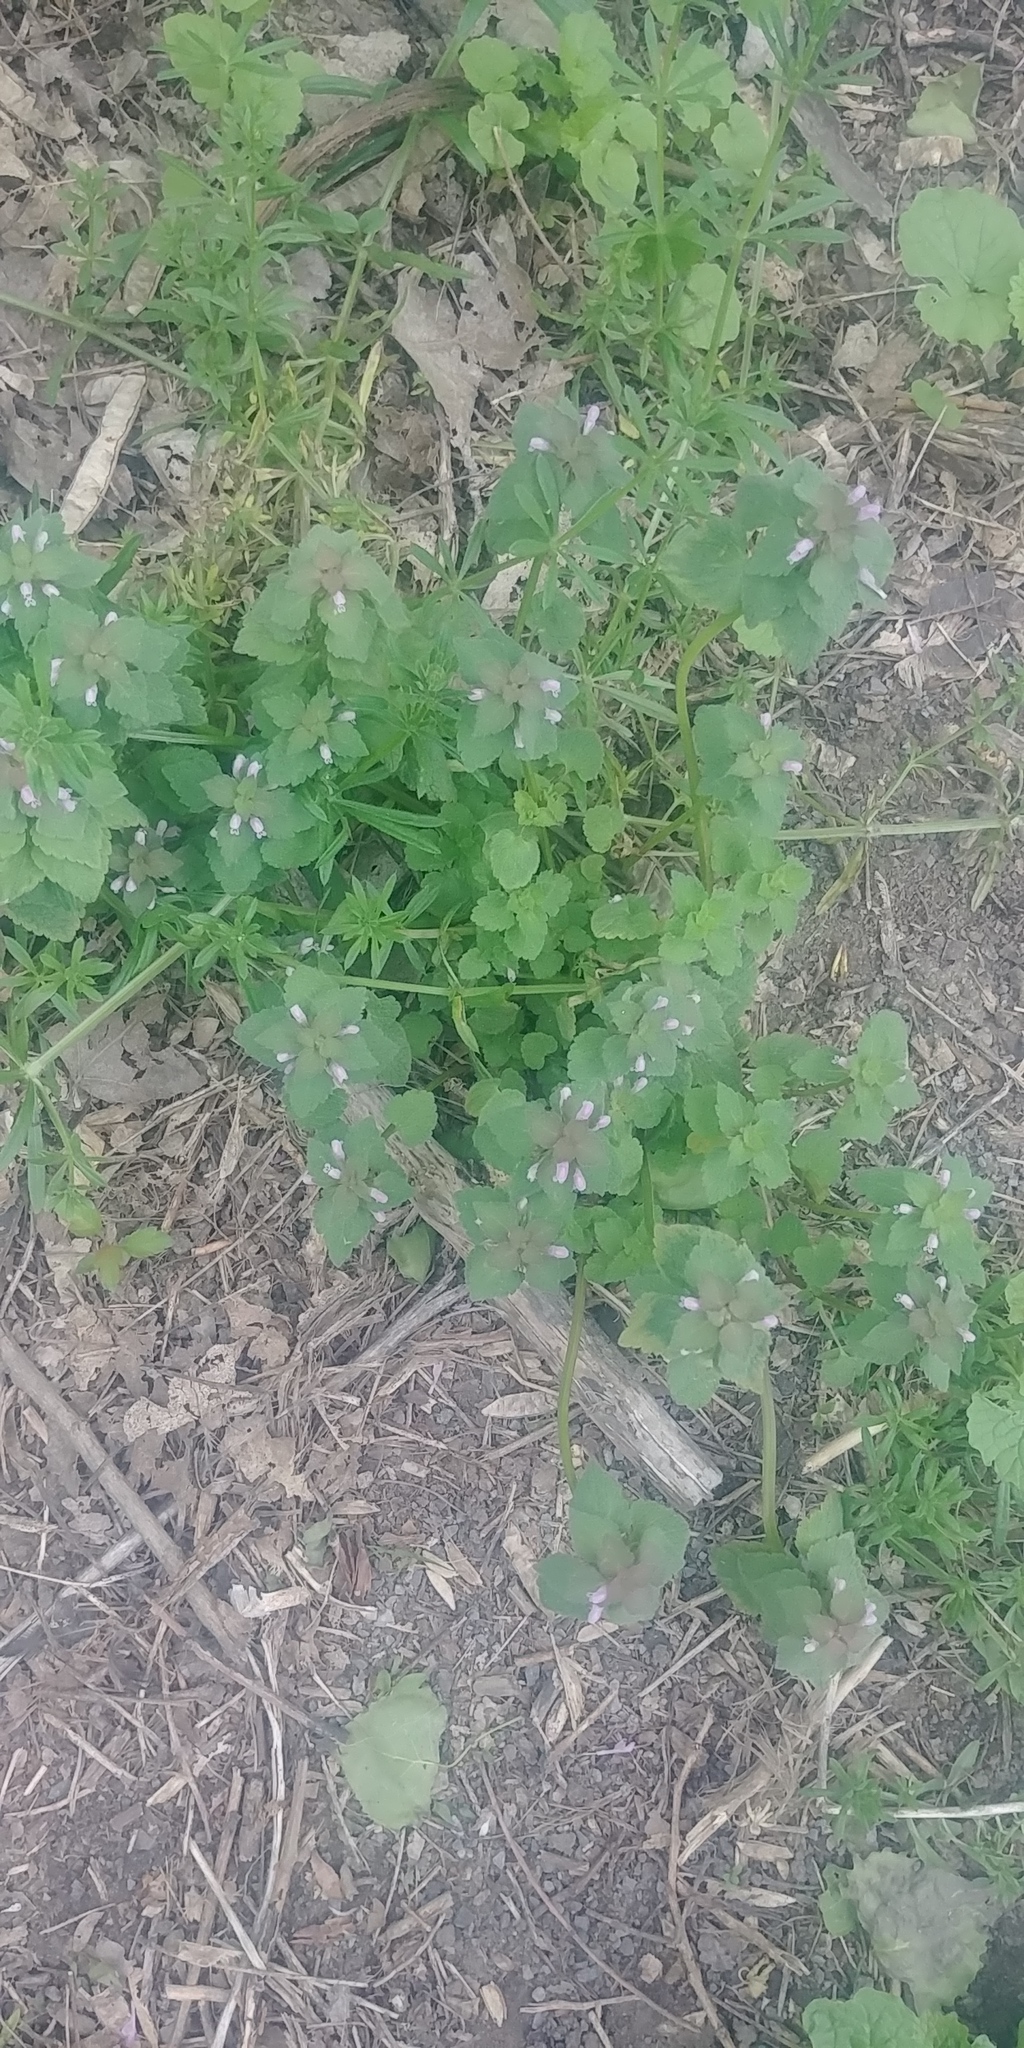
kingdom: Plantae
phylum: Tracheophyta
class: Magnoliopsida
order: Lamiales
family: Lamiaceae
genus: Lamium
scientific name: Lamium purpureum
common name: Red dead-nettle
